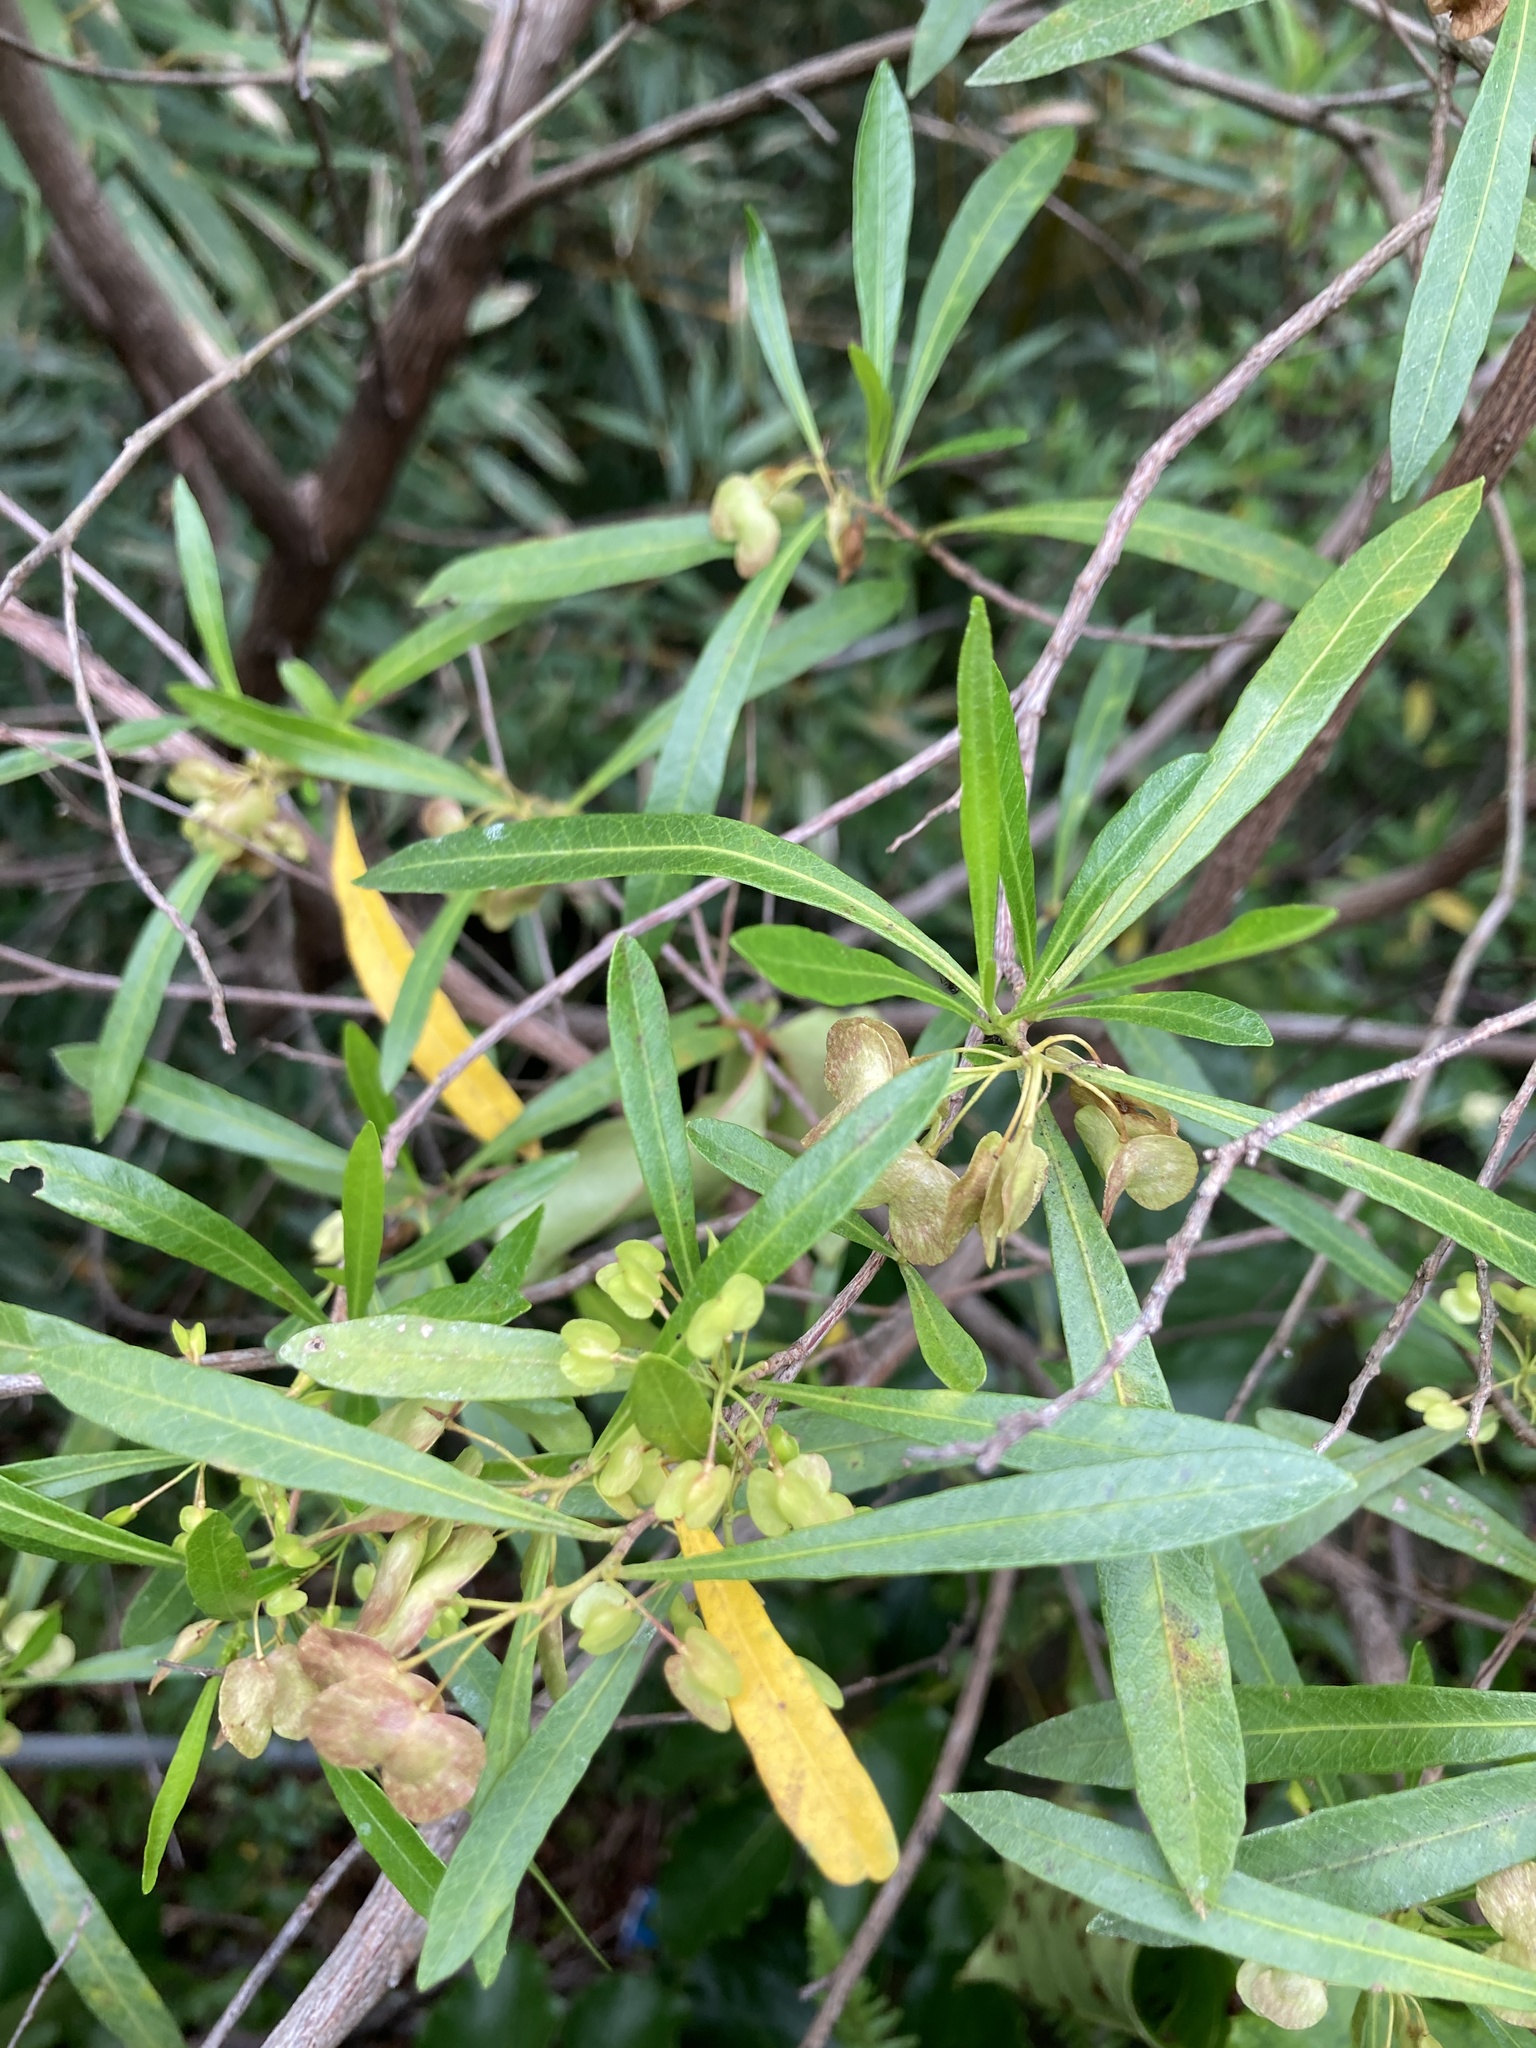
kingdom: Plantae
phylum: Tracheophyta
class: Magnoliopsida
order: Sapindales
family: Sapindaceae
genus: Dodonaea
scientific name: Dodonaea viscosa
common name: Hopbush
